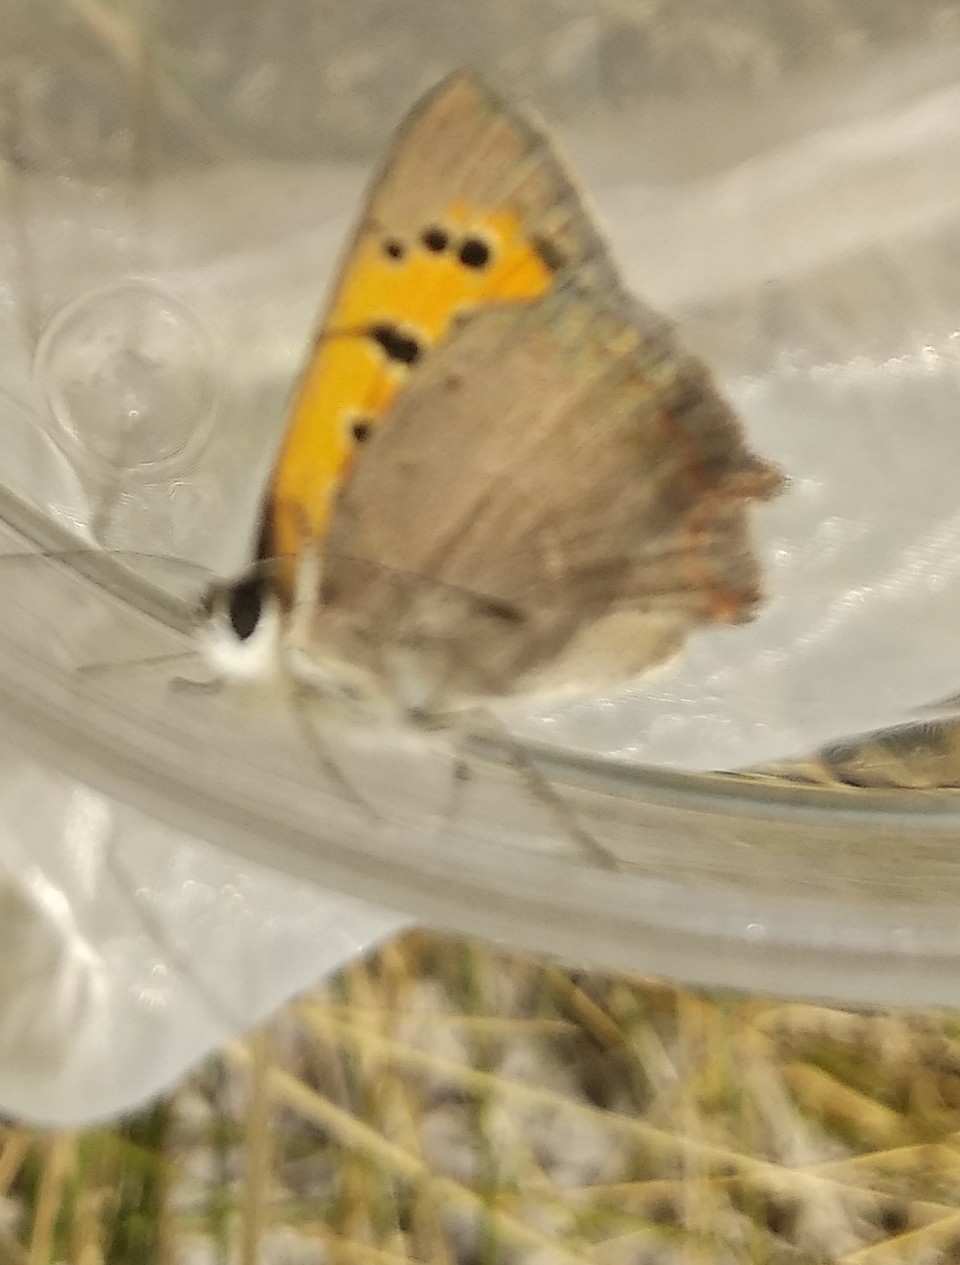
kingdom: Animalia
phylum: Arthropoda
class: Insecta
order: Lepidoptera
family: Lycaenidae
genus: Lycaena
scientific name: Lycaena phlaeas
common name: Small copper
